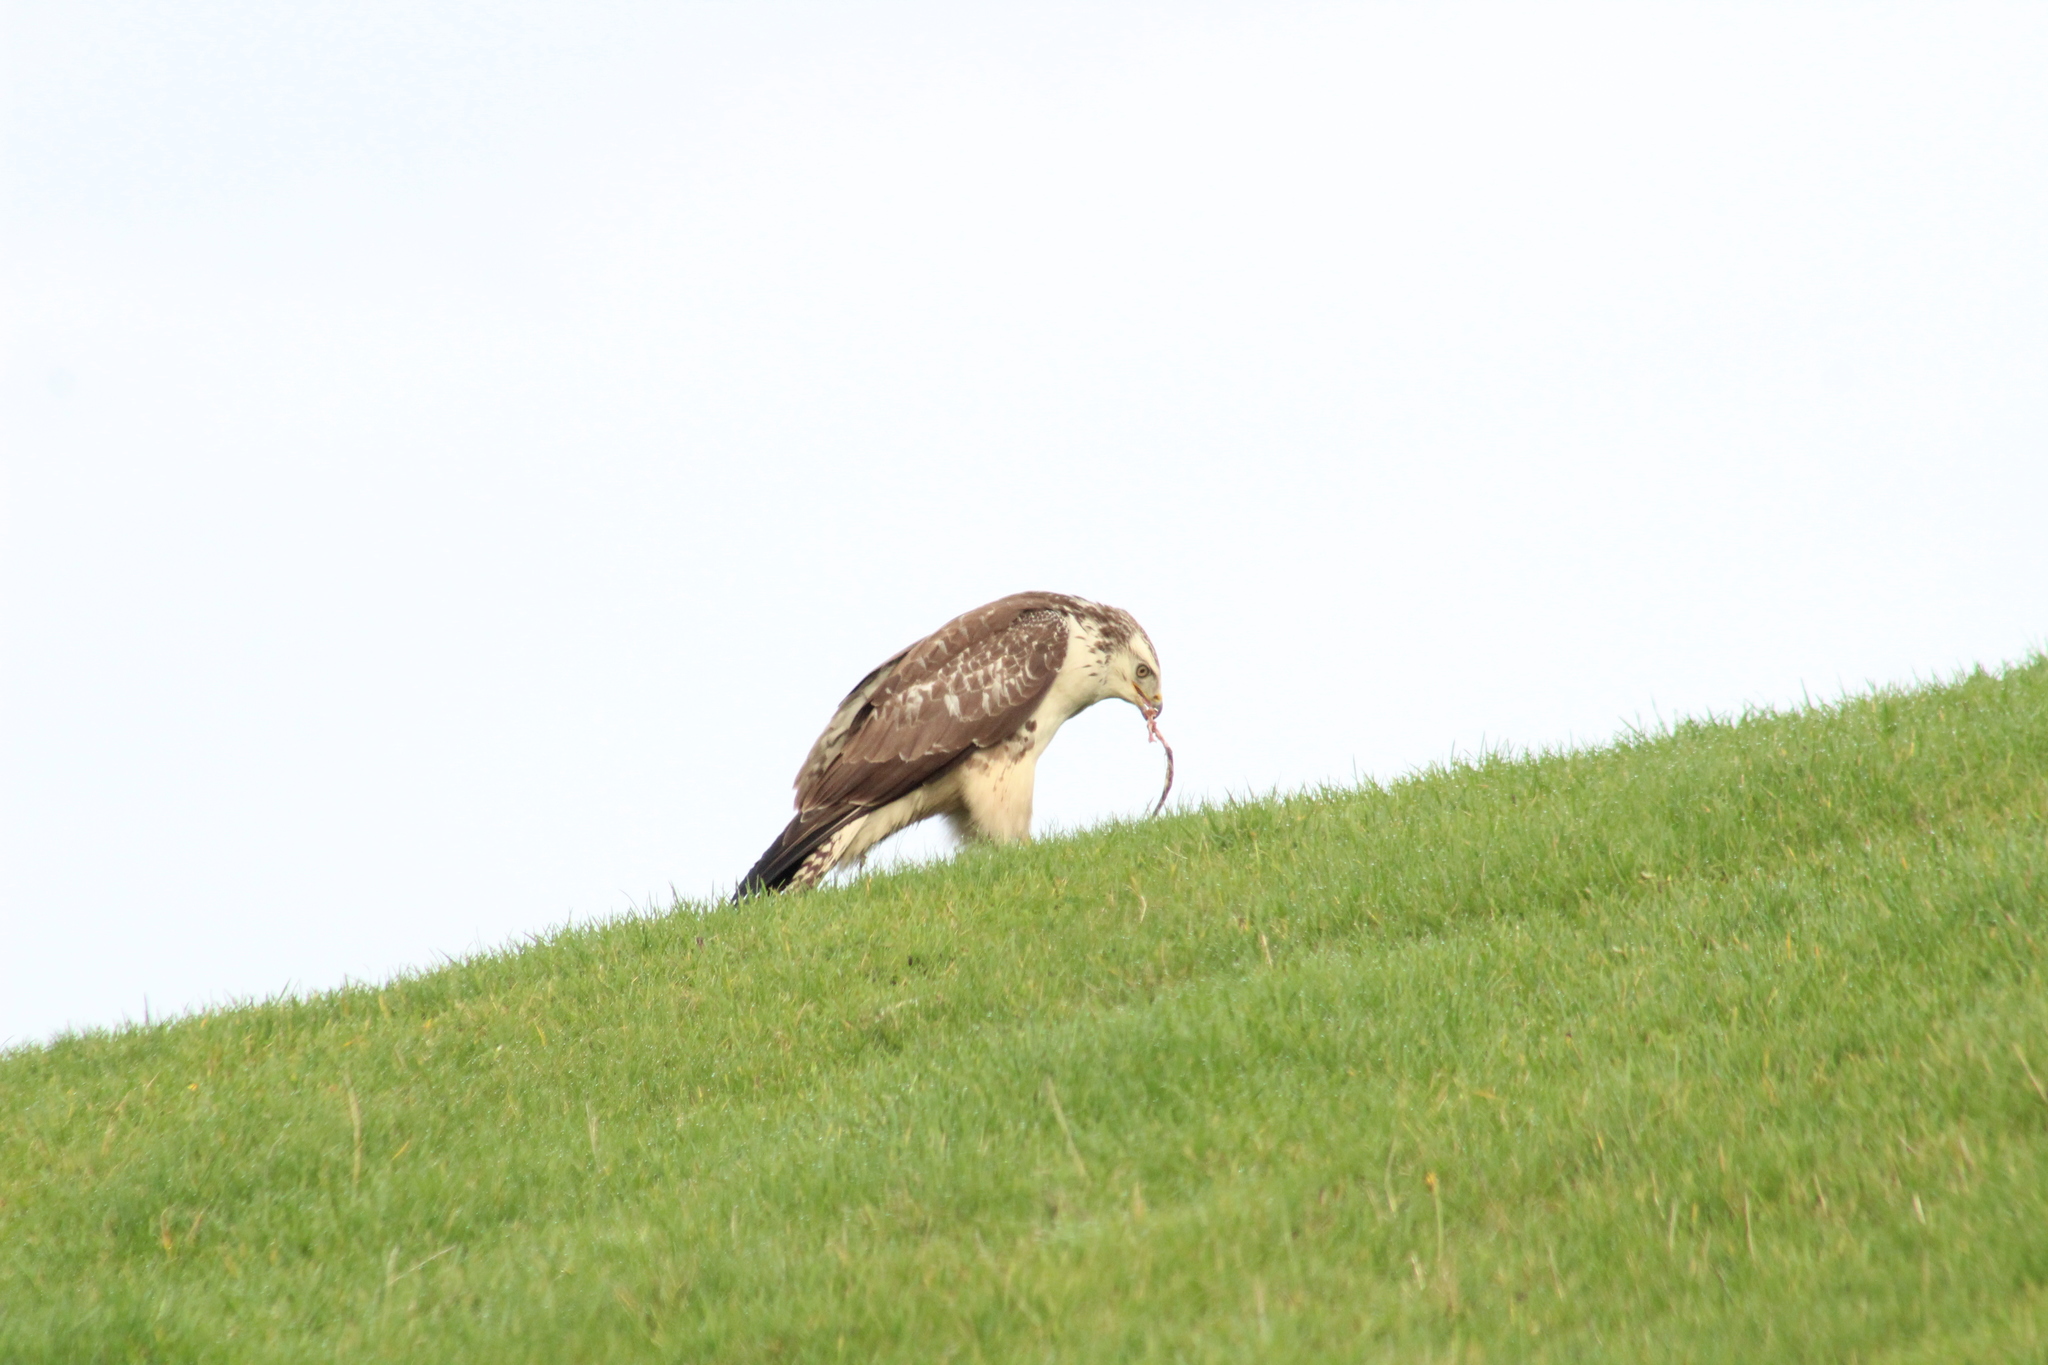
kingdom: Animalia
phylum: Chordata
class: Aves
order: Accipitriformes
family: Accipitridae
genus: Buteo
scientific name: Buteo buteo
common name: Common buzzard
